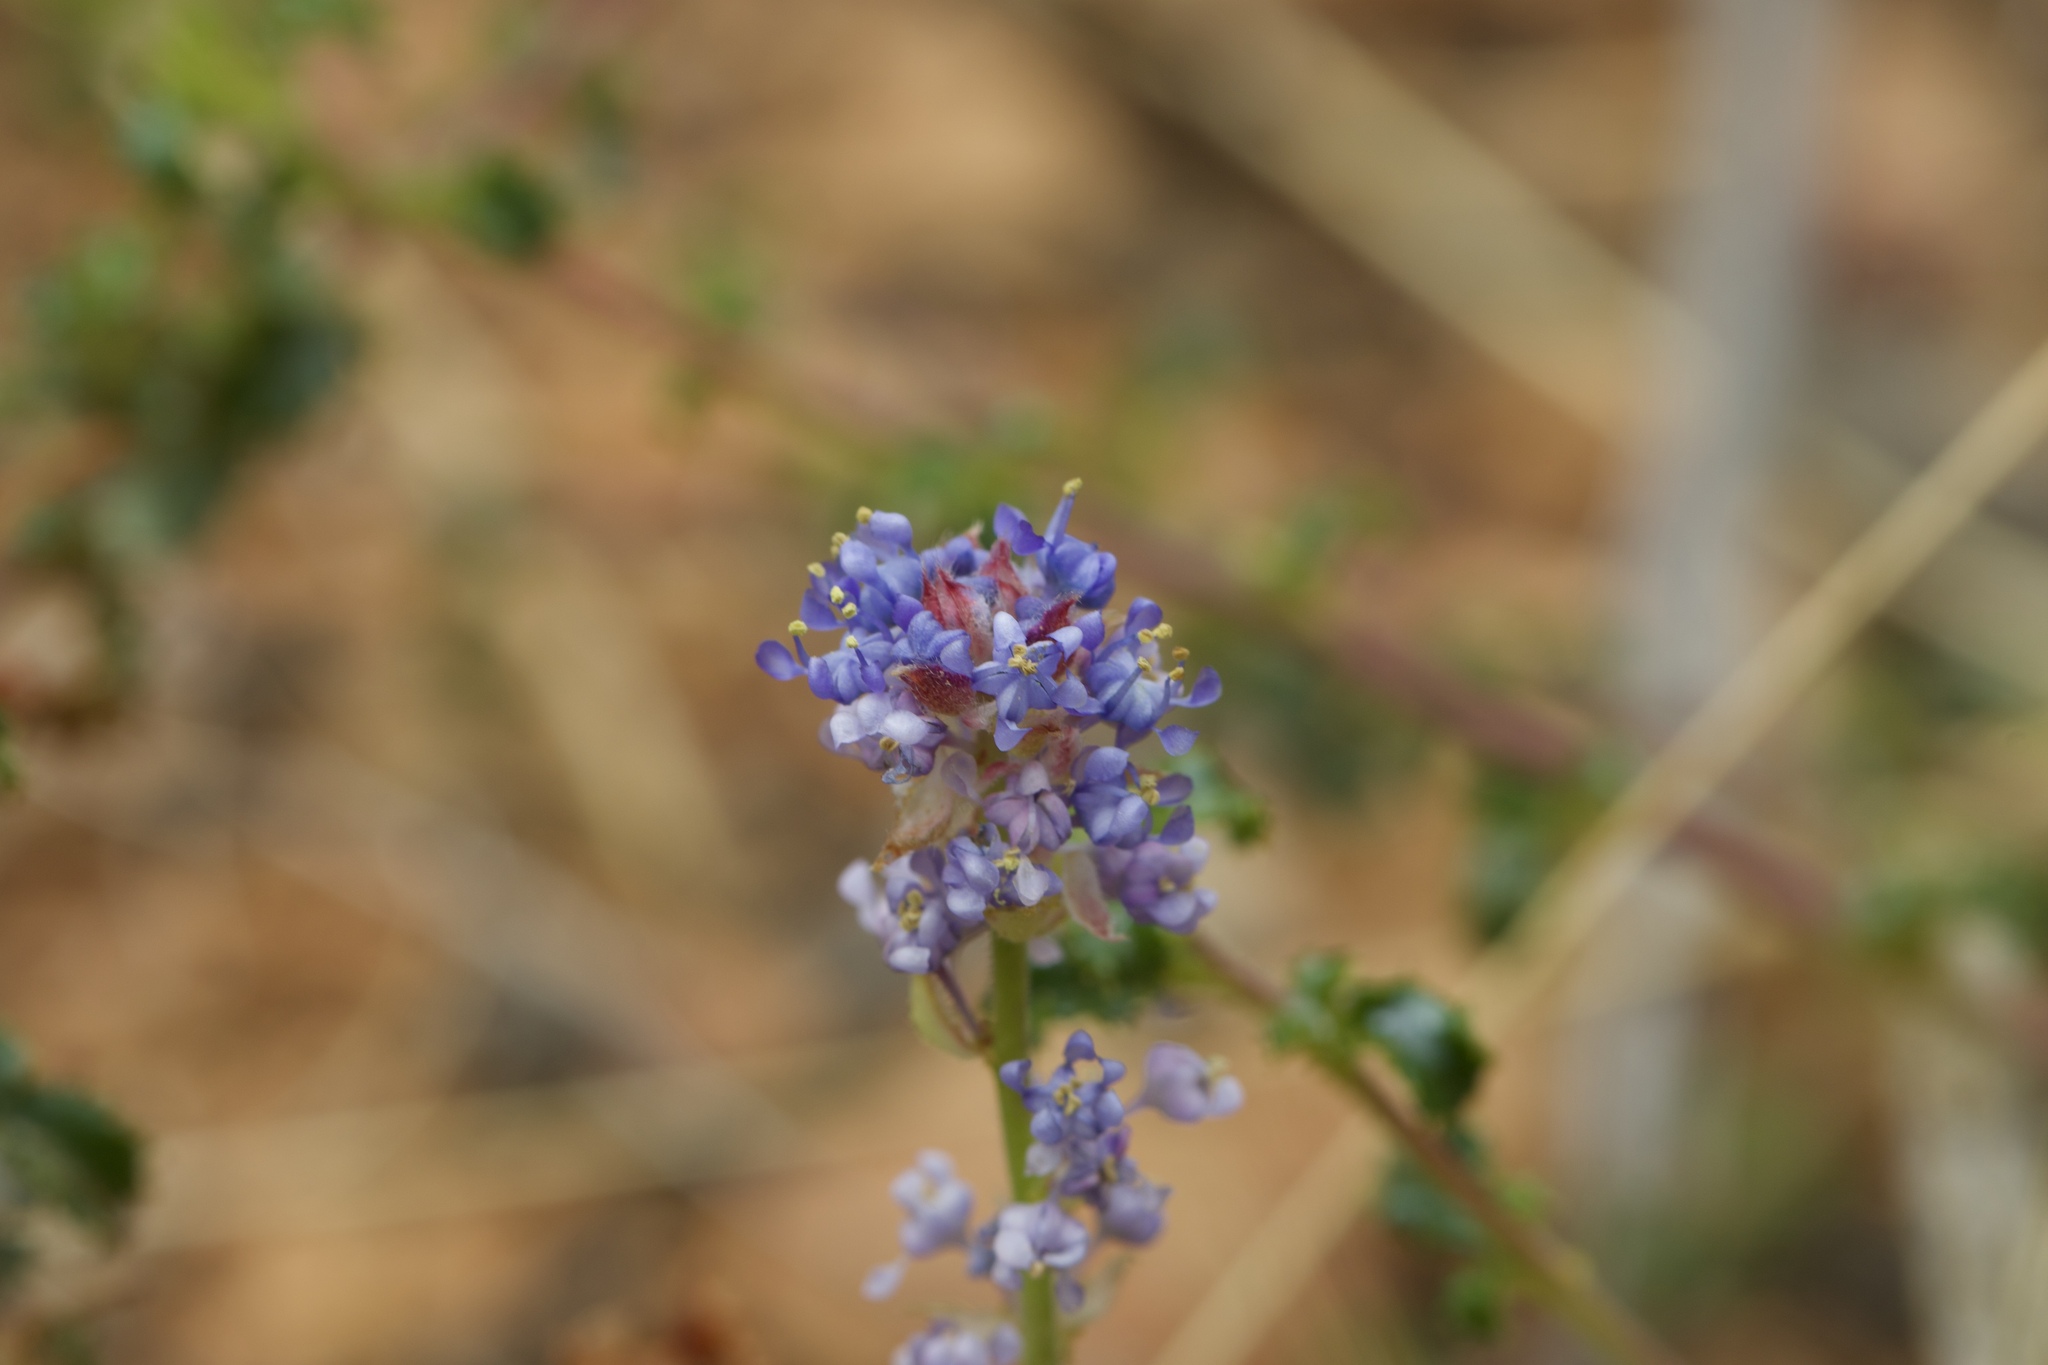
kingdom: Plantae
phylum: Tracheophyta
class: Magnoliopsida
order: Rosales
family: Rhamnaceae
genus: Ceanothus
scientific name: Ceanothus foliosus
